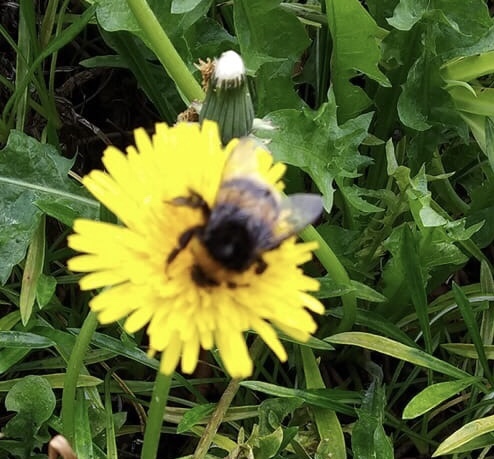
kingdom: Animalia
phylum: Arthropoda
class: Insecta
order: Hymenoptera
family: Apidae
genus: Bombus
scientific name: Bombus terrestris
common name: Buff-tailed bumblebee
